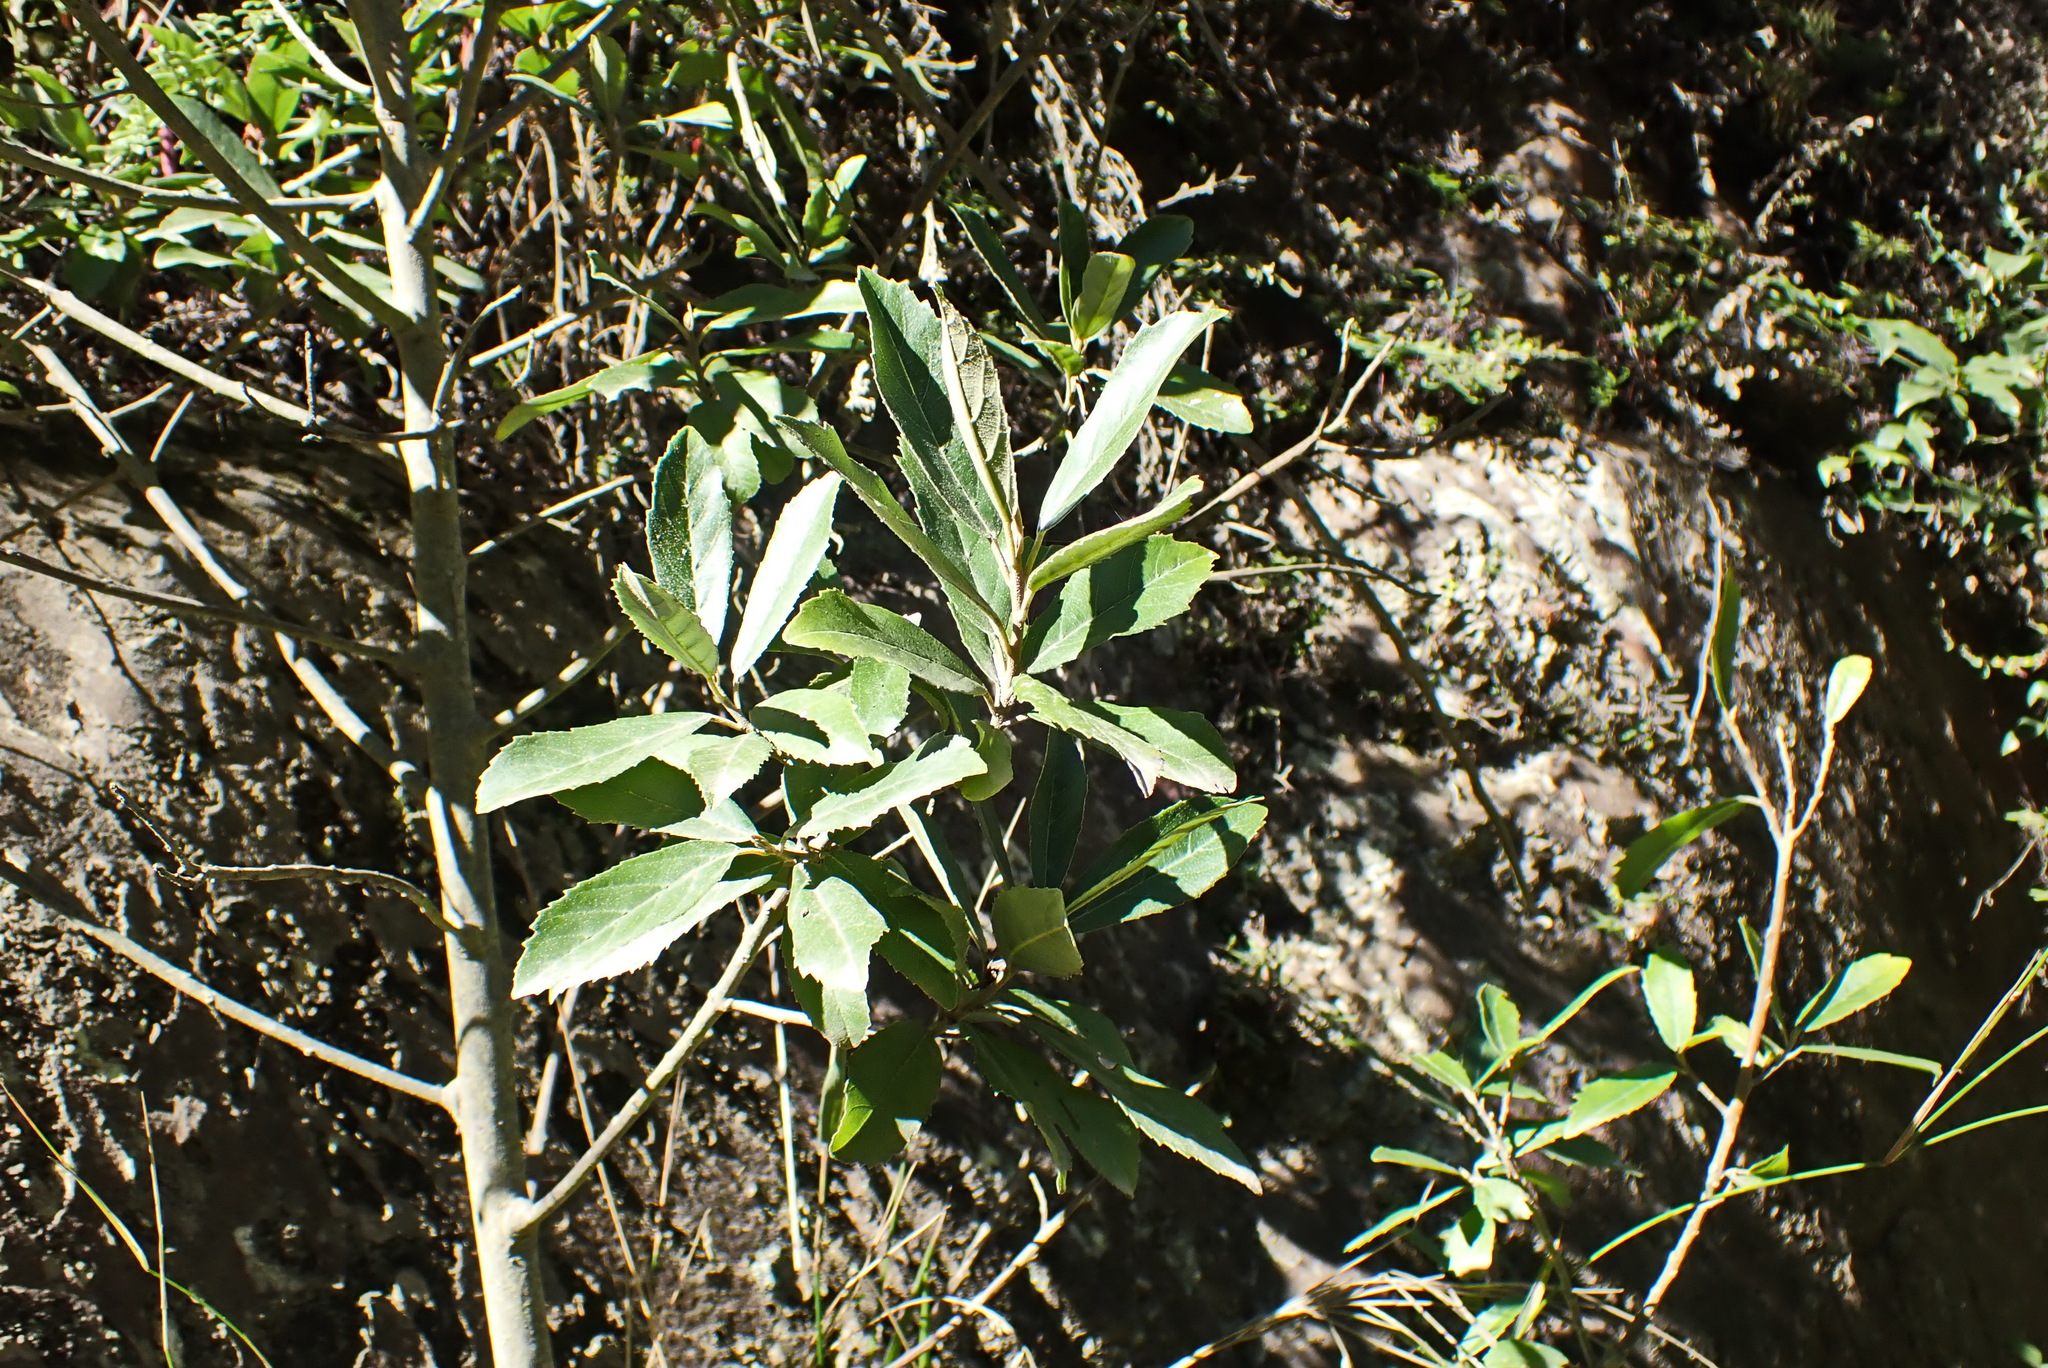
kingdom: Plantae
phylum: Tracheophyta
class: Magnoliopsida
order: Malpighiales
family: Achariaceae
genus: Kiggelaria
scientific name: Kiggelaria africana
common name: Wild peach
